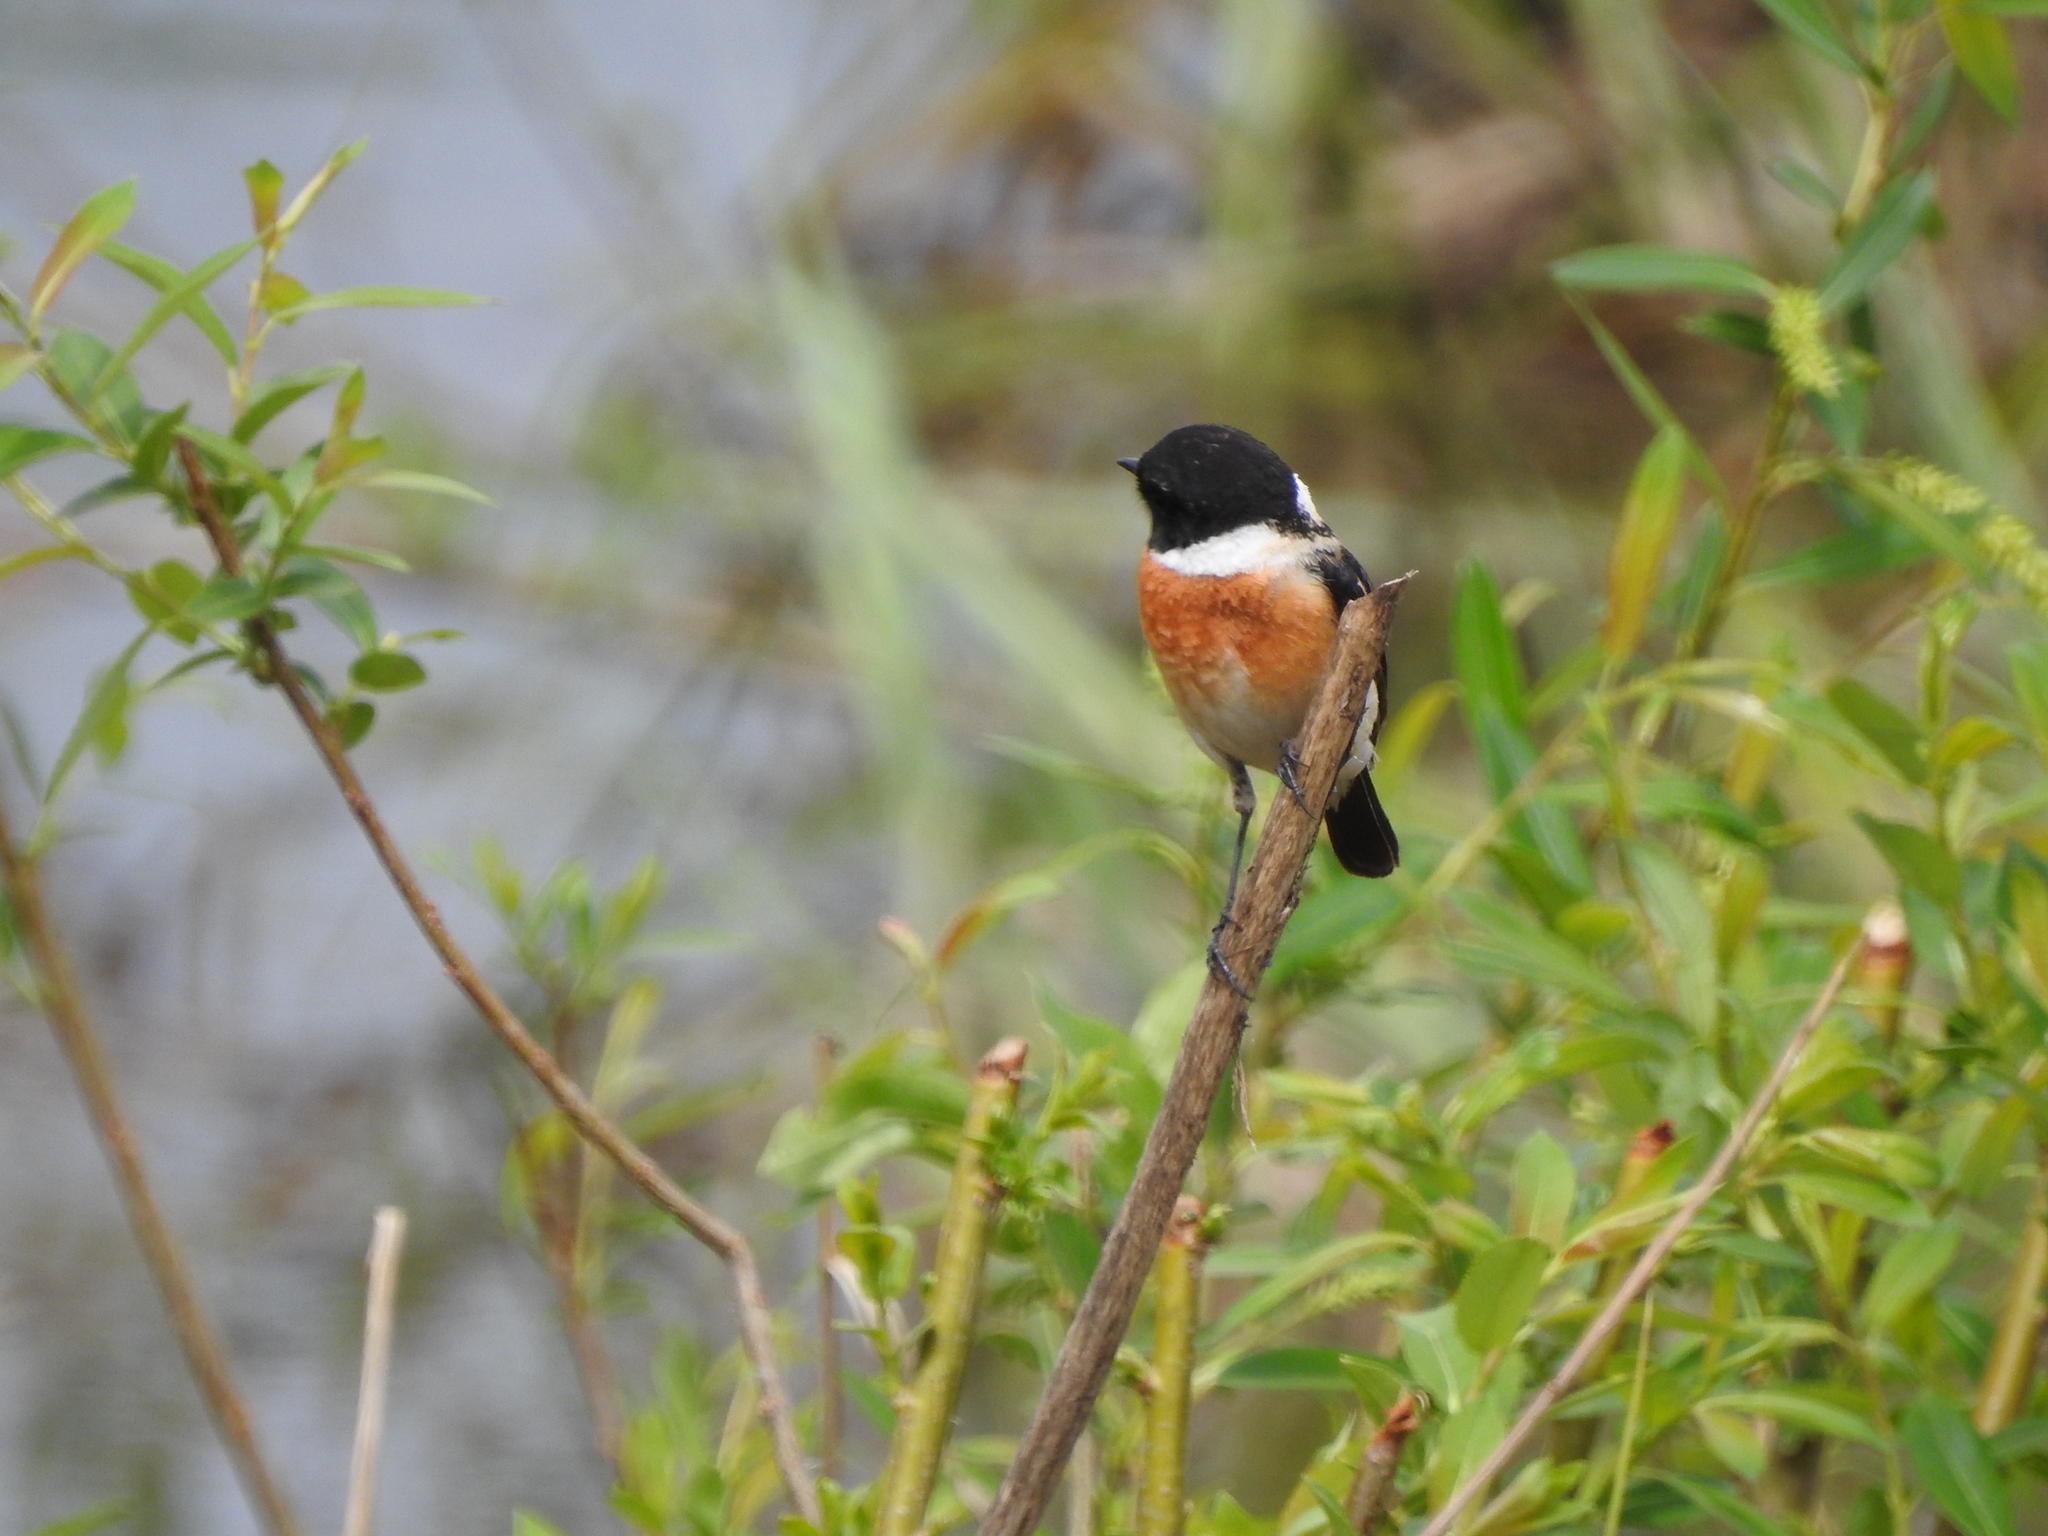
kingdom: Animalia
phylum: Chordata
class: Aves
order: Passeriformes
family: Muscicapidae
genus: Saxicola
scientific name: Saxicola maurus
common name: Siberian stonechat
